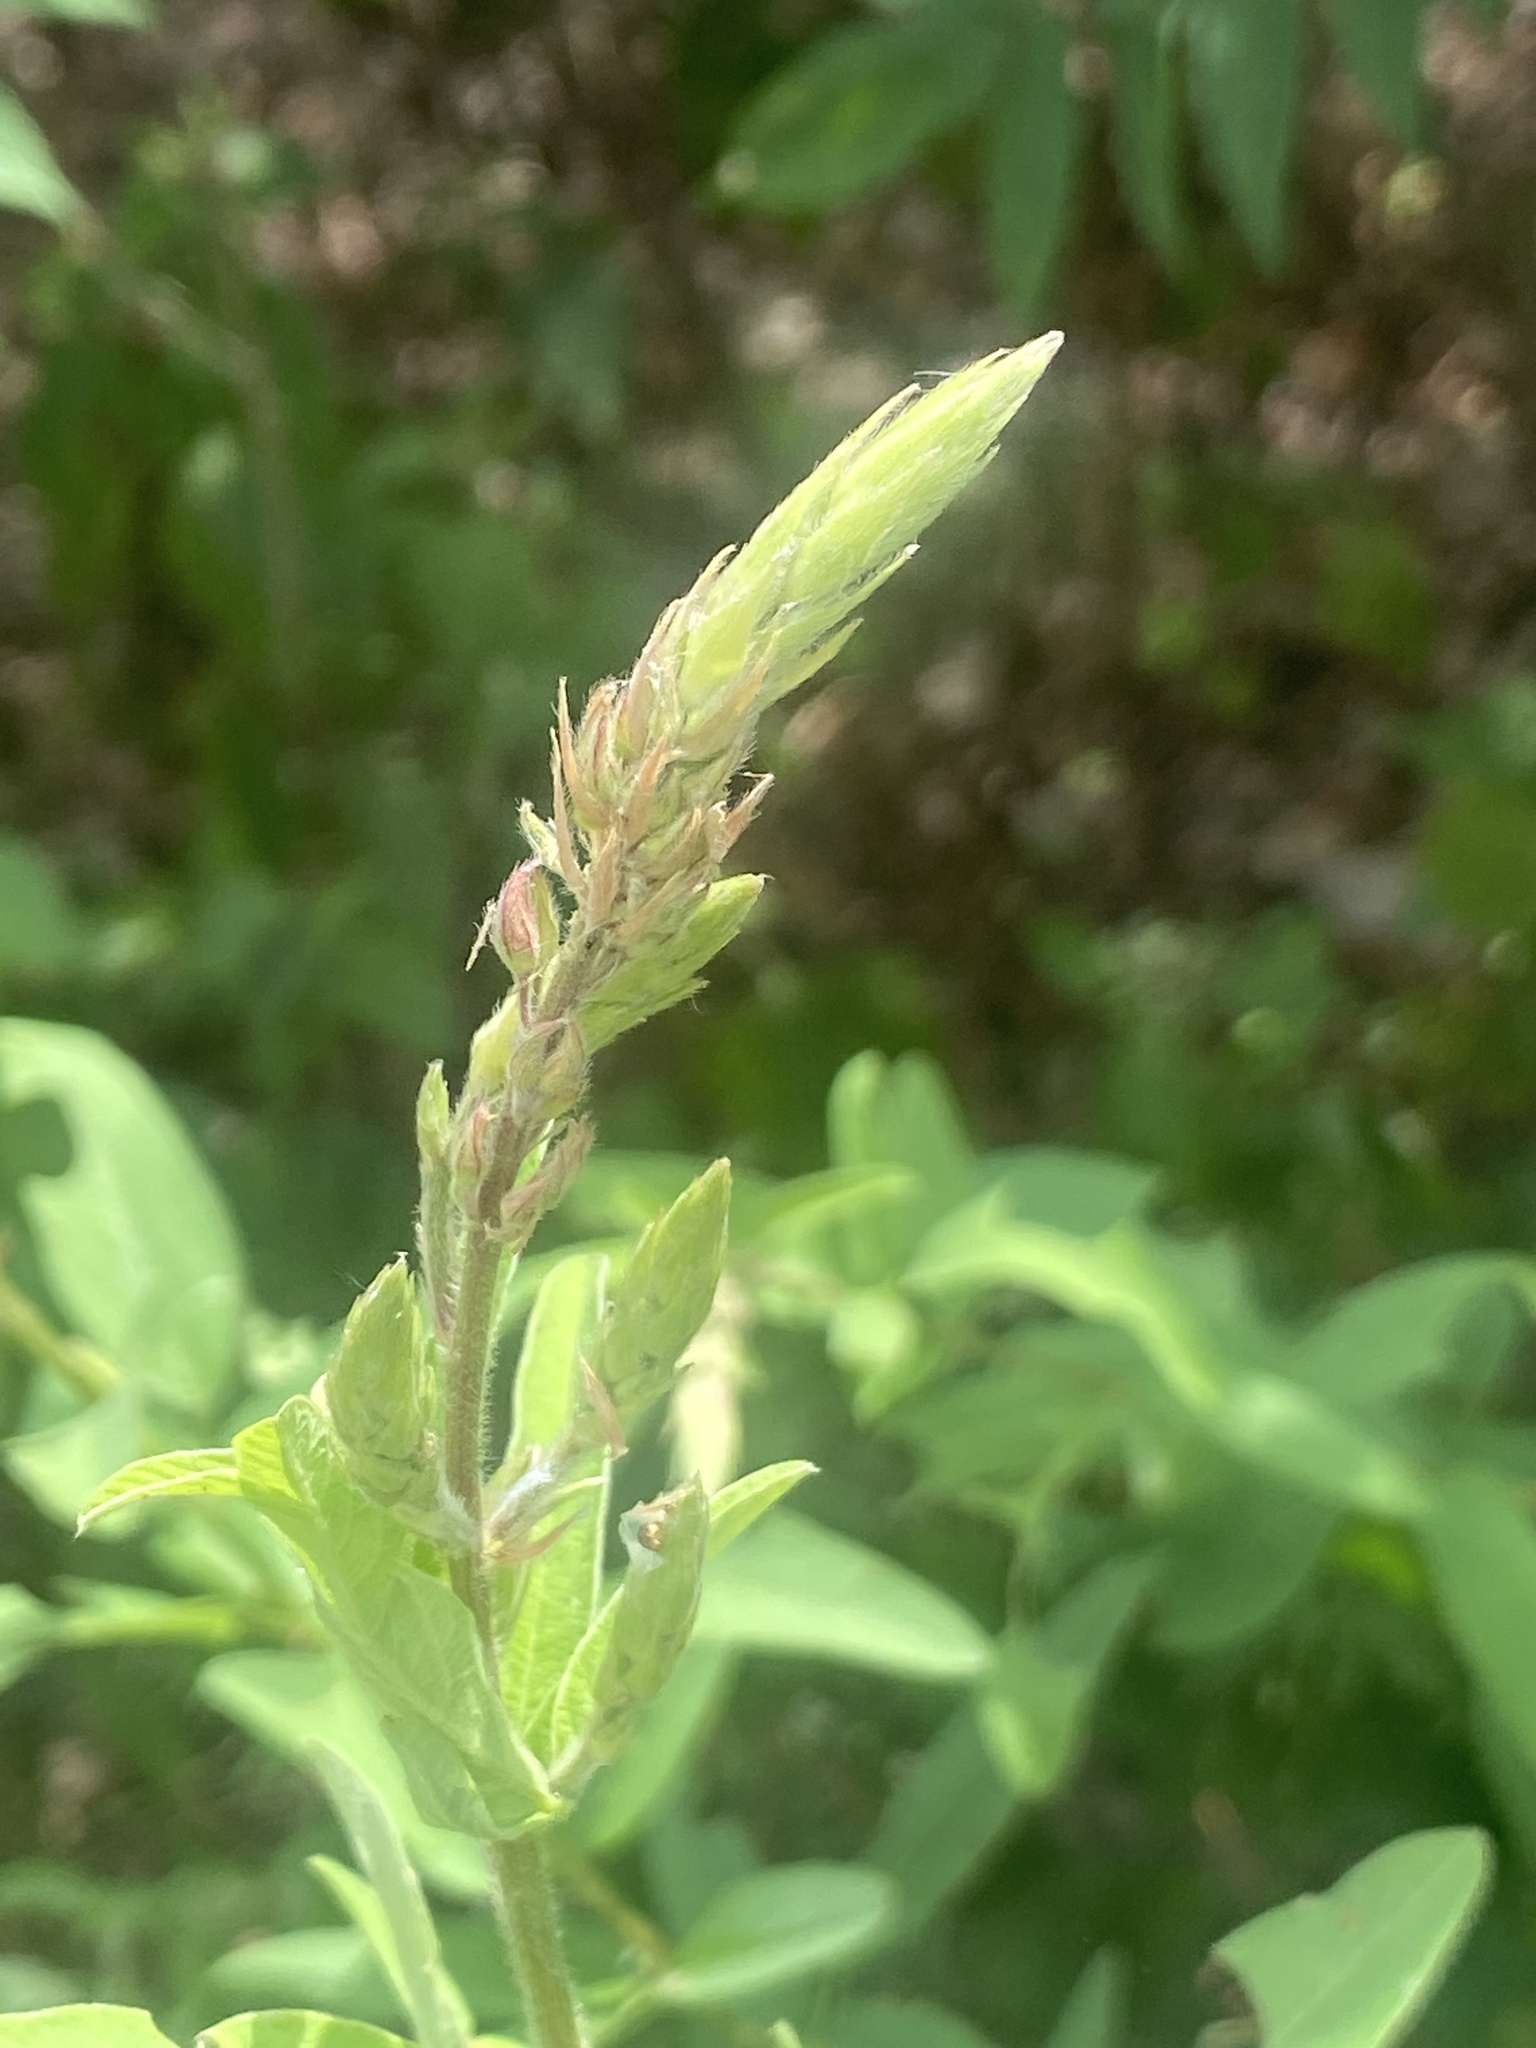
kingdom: Plantae
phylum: Tracheophyta
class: Magnoliopsida
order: Fabales
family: Fabaceae
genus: Desmodium
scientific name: Desmodium canadense
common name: Canada tick-trefoil
